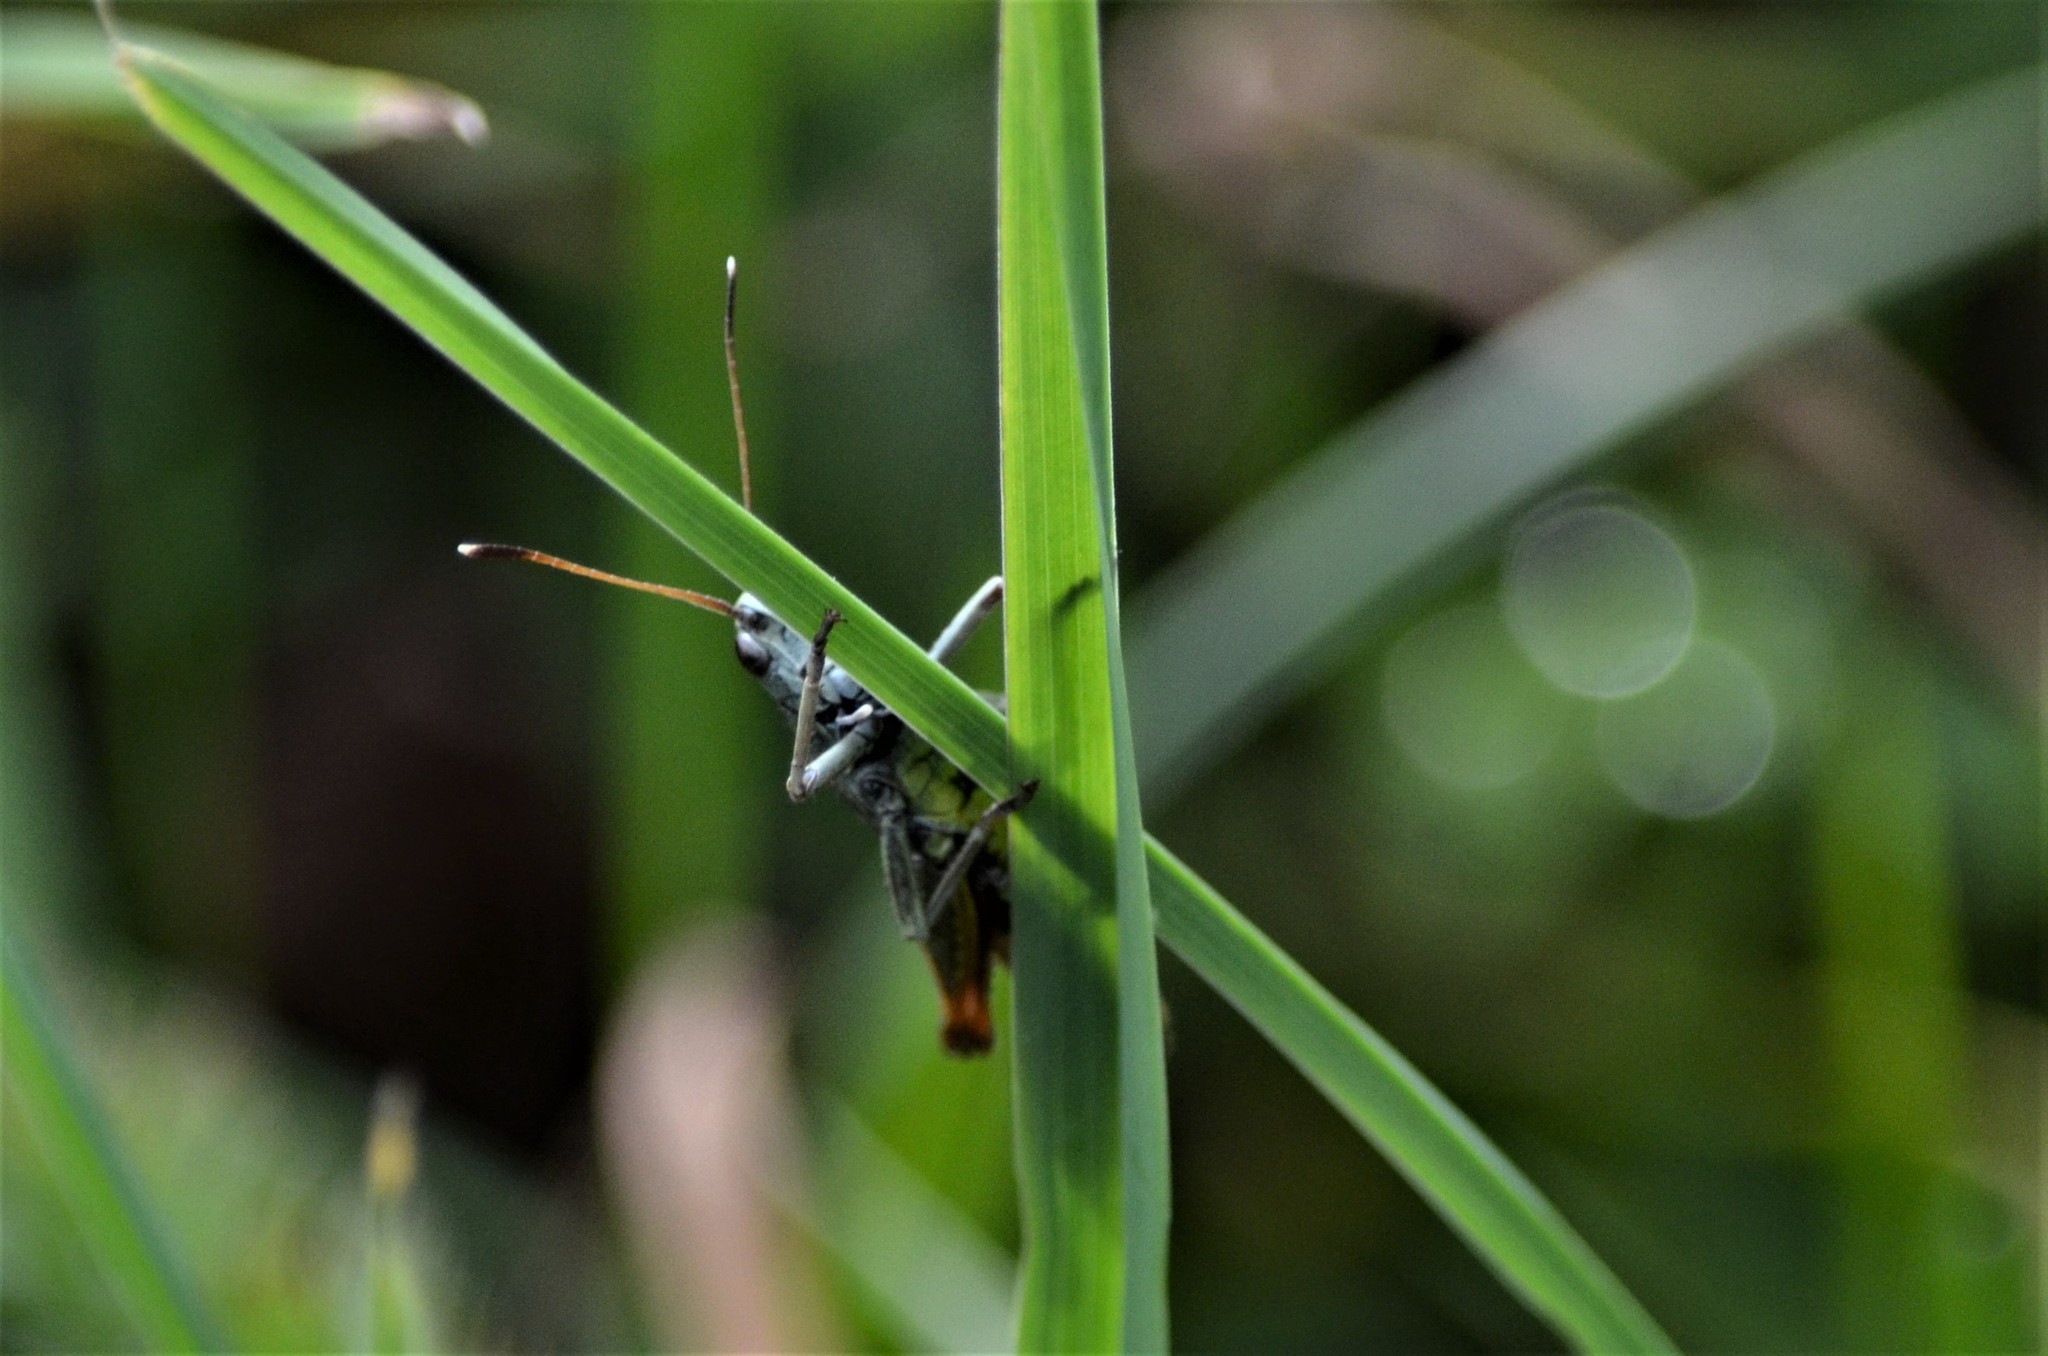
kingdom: Animalia
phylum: Arthropoda
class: Insecta
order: Orthoptera
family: Acrididae
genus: Gomphocerippus
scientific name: Gomphocerippus rufus
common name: Rufous grasshopper
